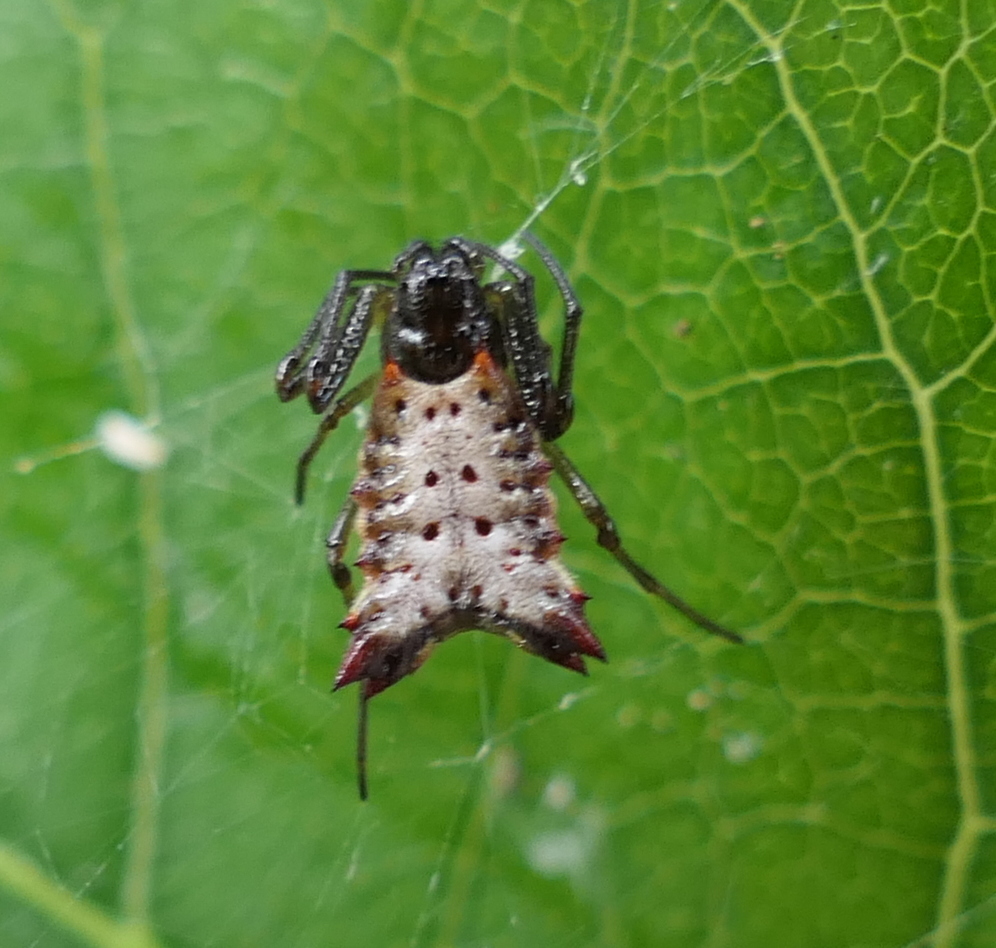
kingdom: Animalia
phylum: Arthropoda
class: Arachnida
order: Araneae
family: Araneidae
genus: Micrathena
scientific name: Micrathena plana
